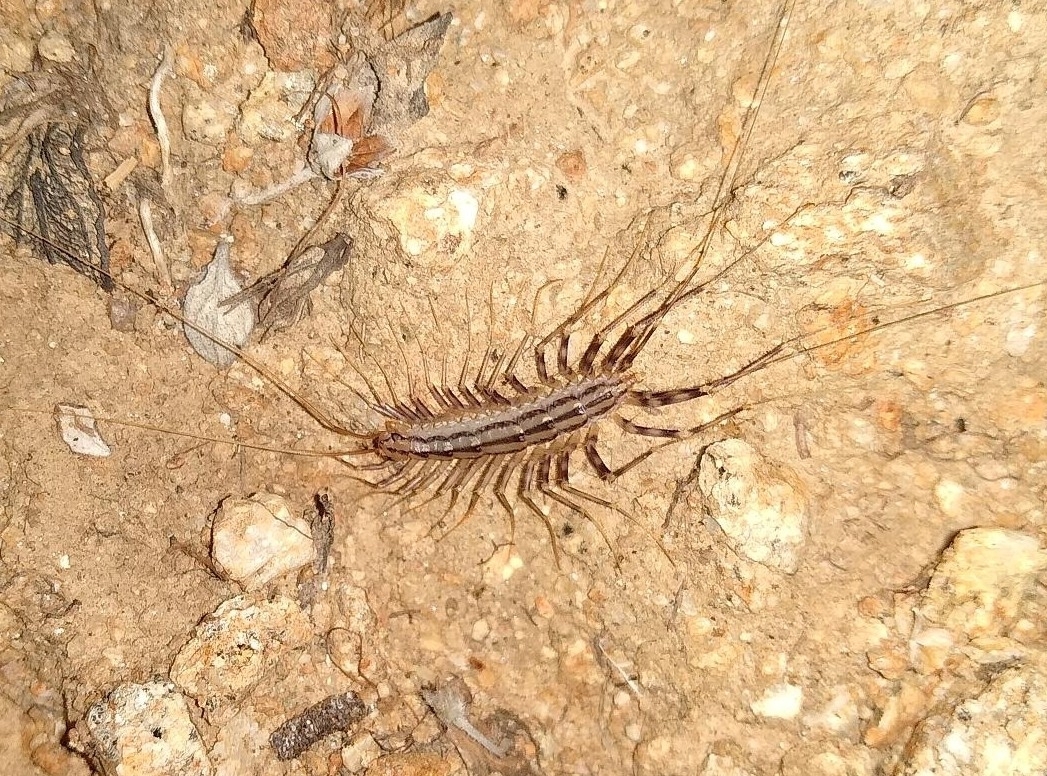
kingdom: Animalia
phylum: Arthropoda
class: Chilopoda
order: Scutigeromorpha
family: Scutigeridae
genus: Scutigera
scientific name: Scutigera coleoptrata
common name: House centipede
